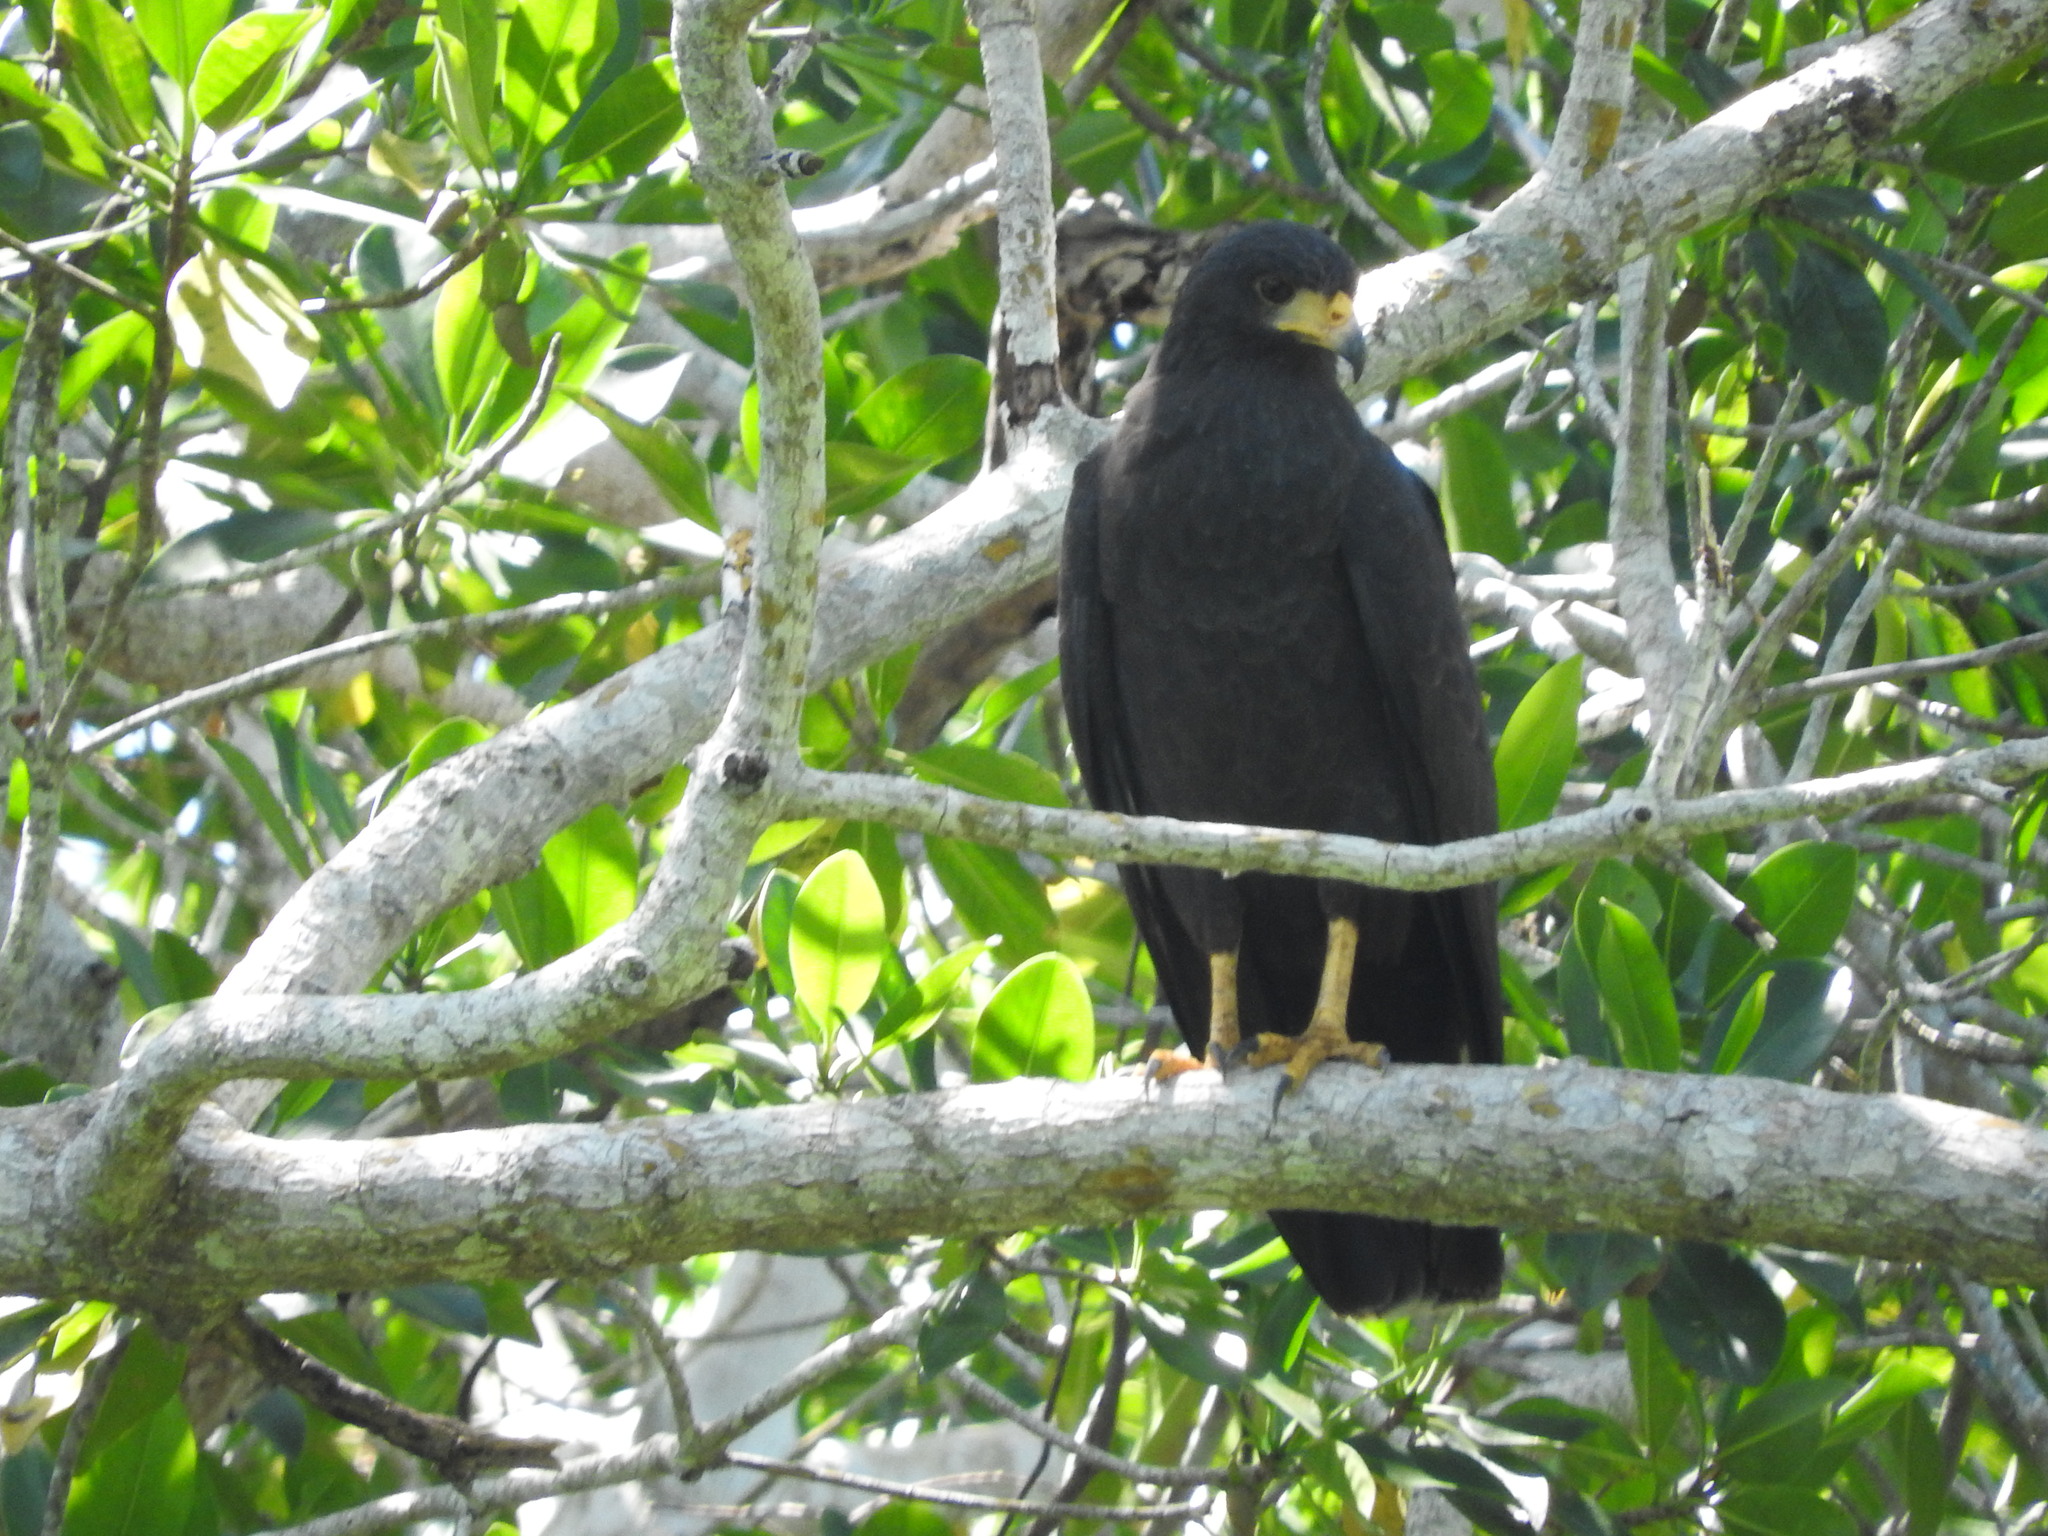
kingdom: Animalia
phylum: Chordata
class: Aves
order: Accipitriformes
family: Accipitridae
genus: Buteogallus
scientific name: Buteogallus anthracinus
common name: Common black hawk
